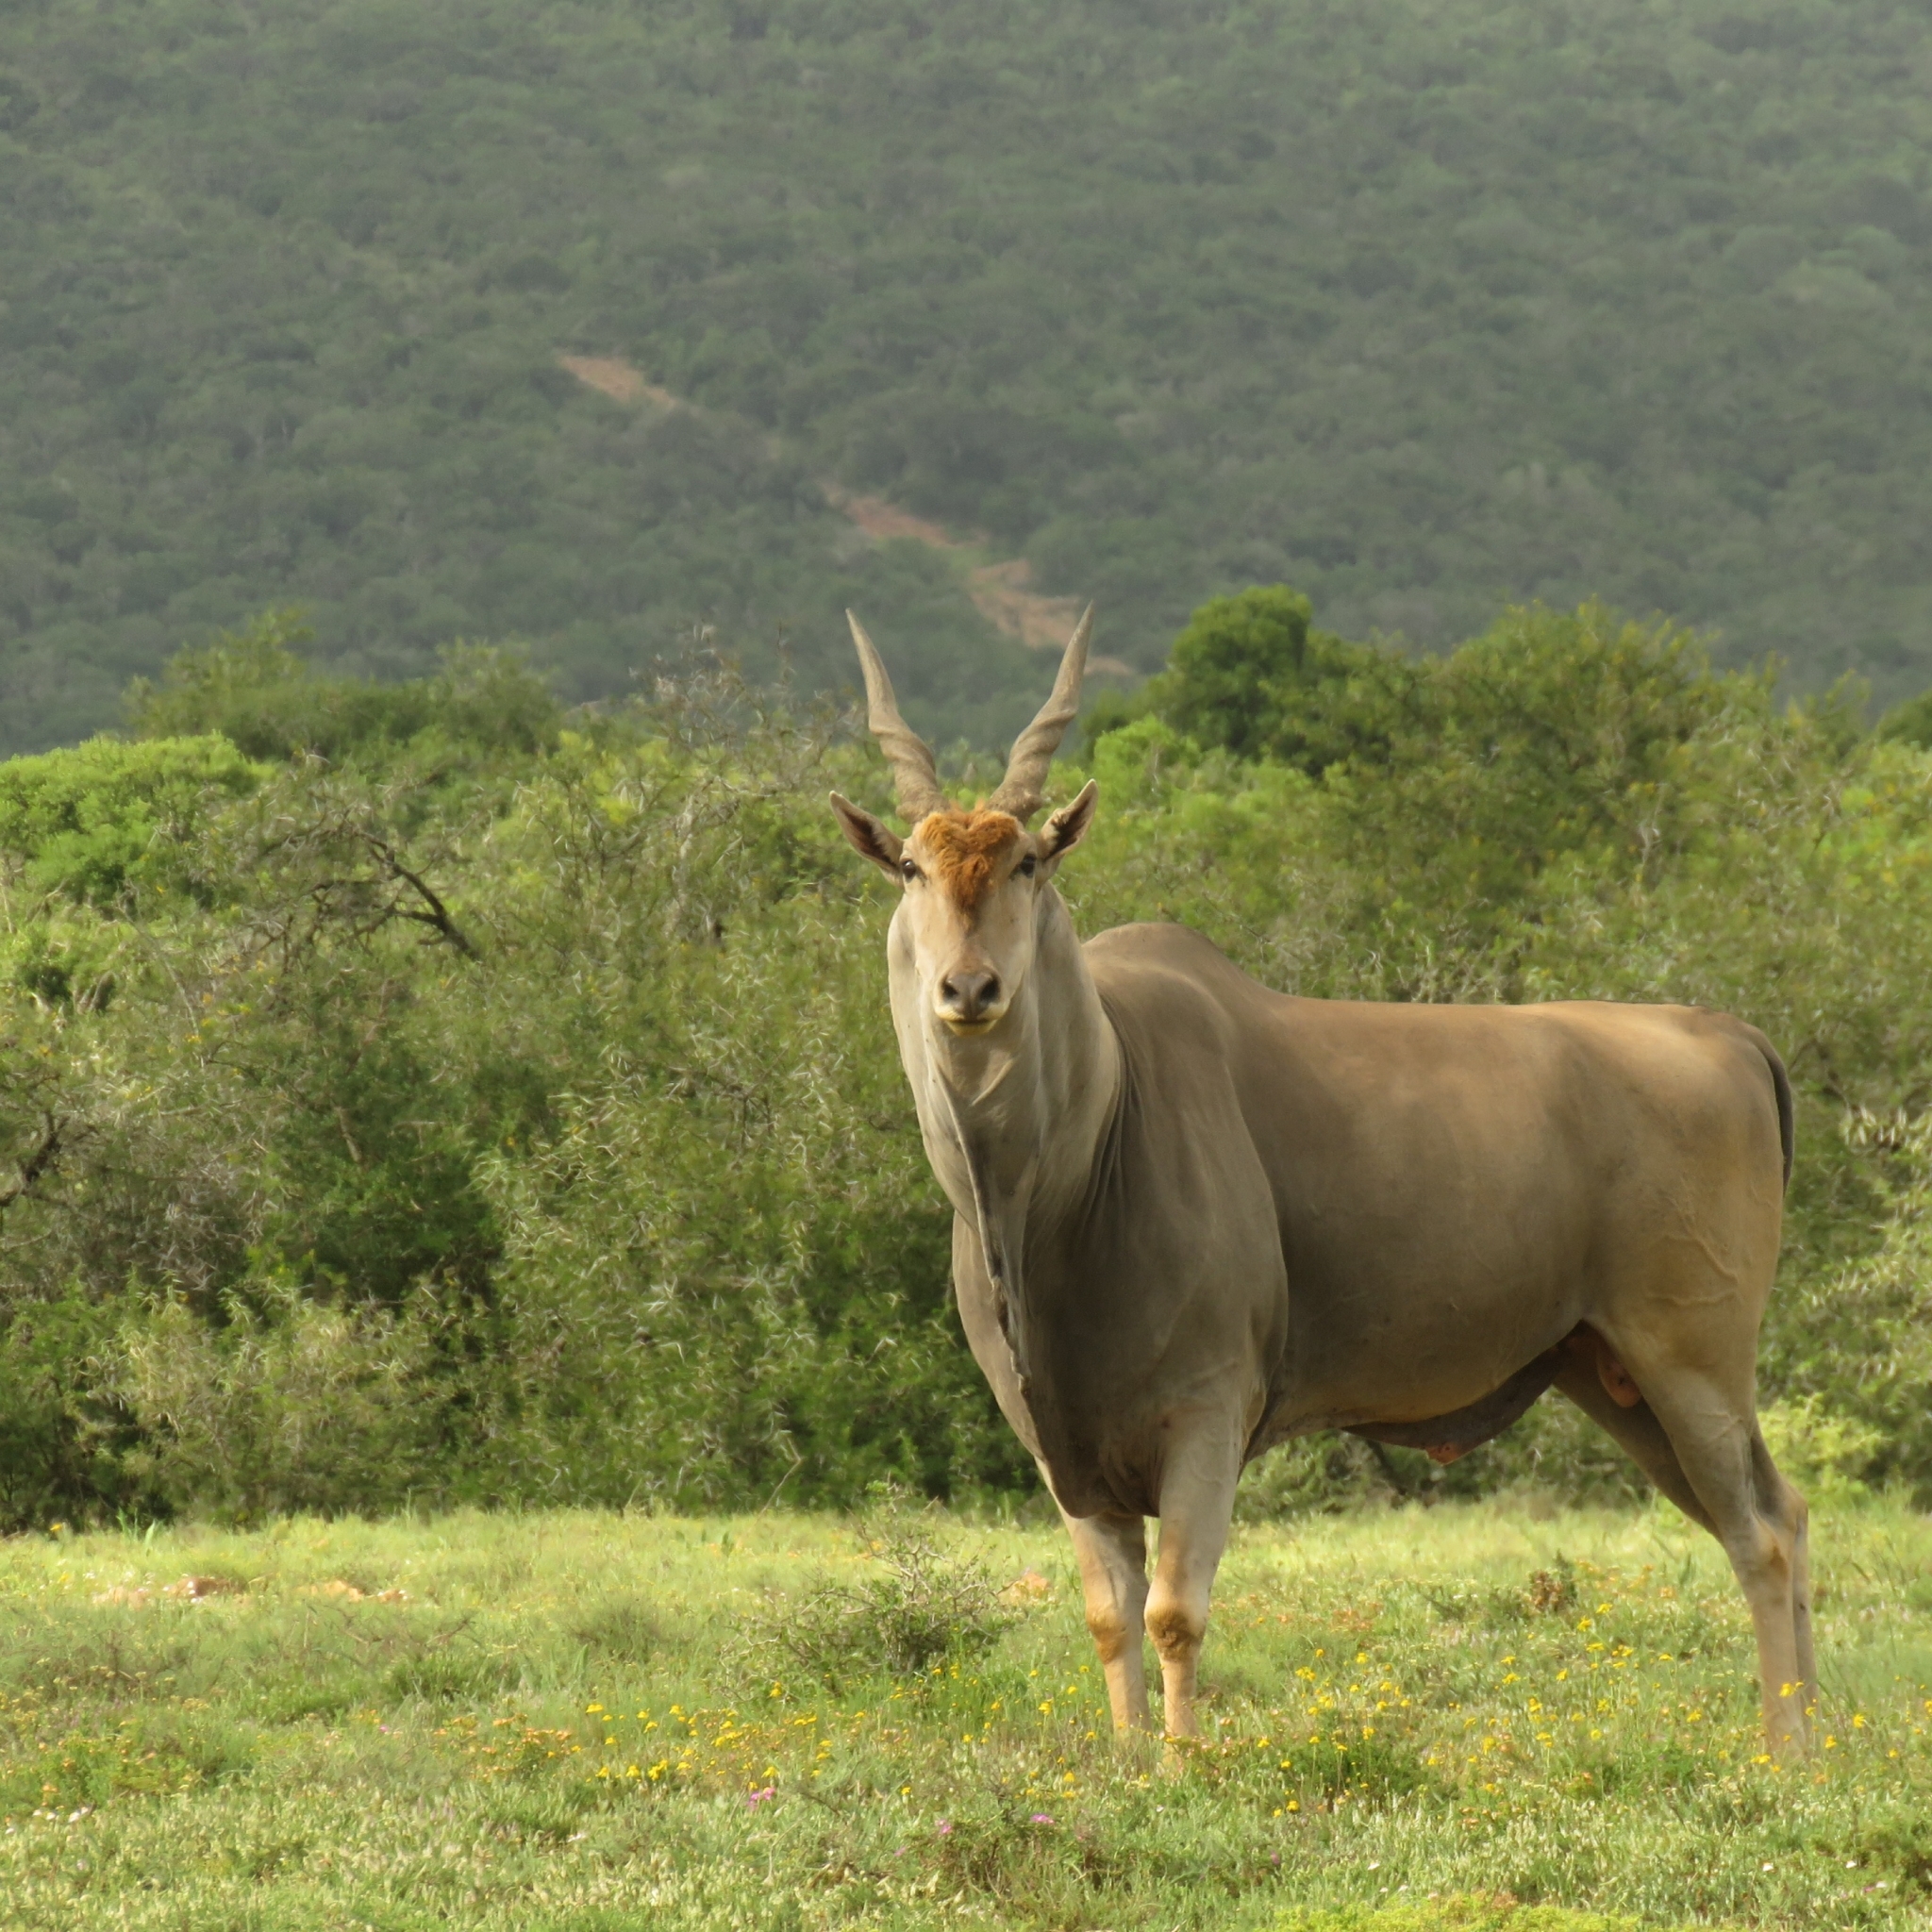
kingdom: Animalia
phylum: Chordata
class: Mammalia
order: Artiodactyla
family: Bovidae
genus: Taurotragus
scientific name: Taurotragus oryx
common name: Common eland
